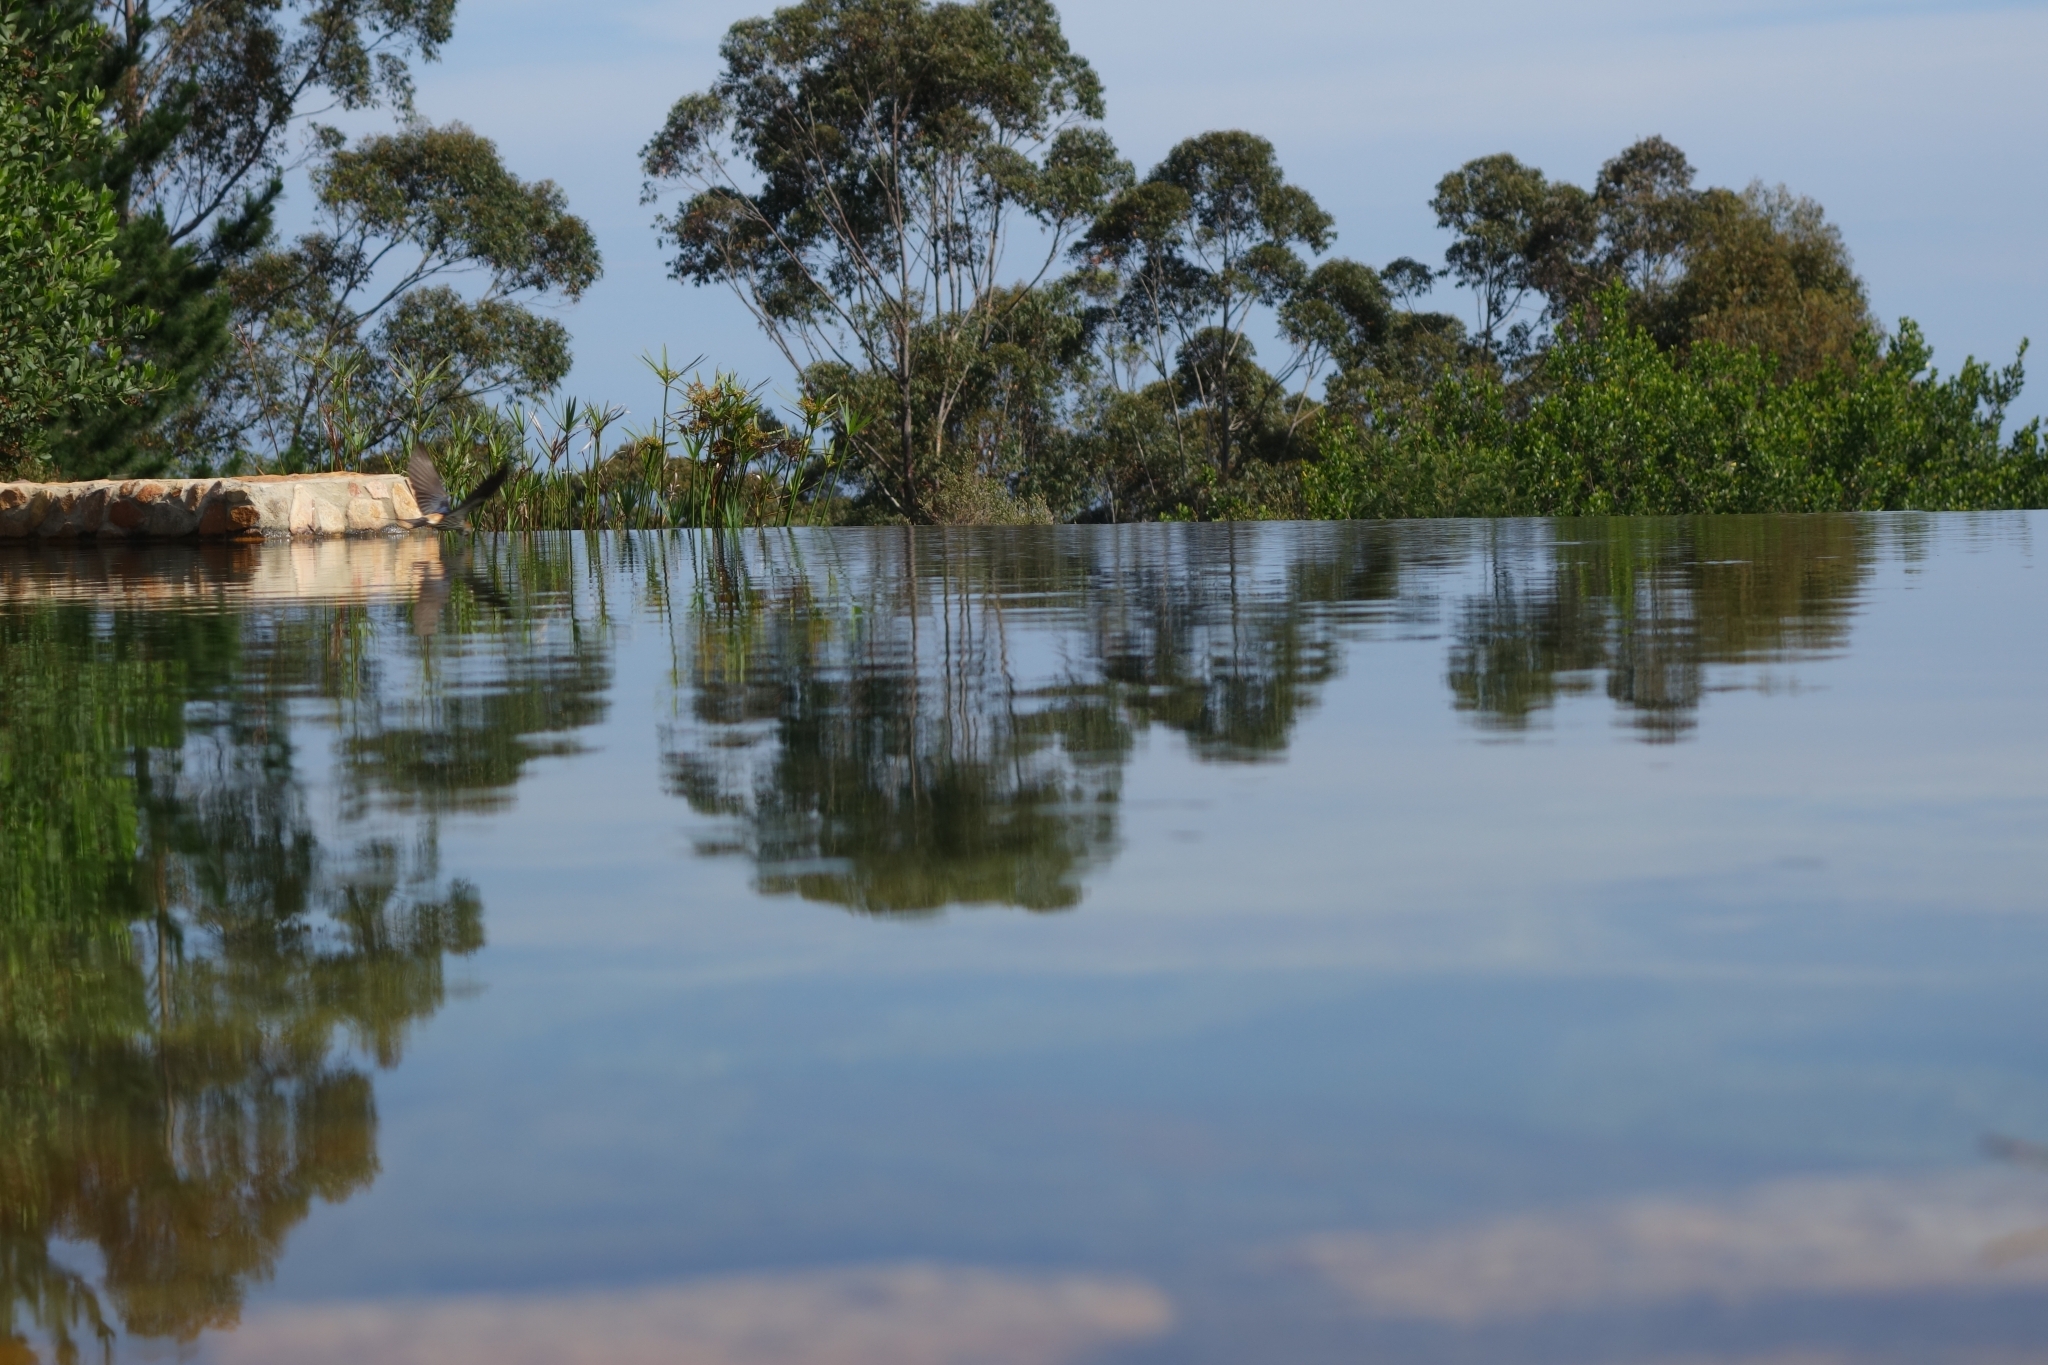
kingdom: Animalia
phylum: Chordata
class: Aves
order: Passeriformes
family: Hirundinidae
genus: Cecropis
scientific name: Cecropis cucullata
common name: Greater striped-swallow
